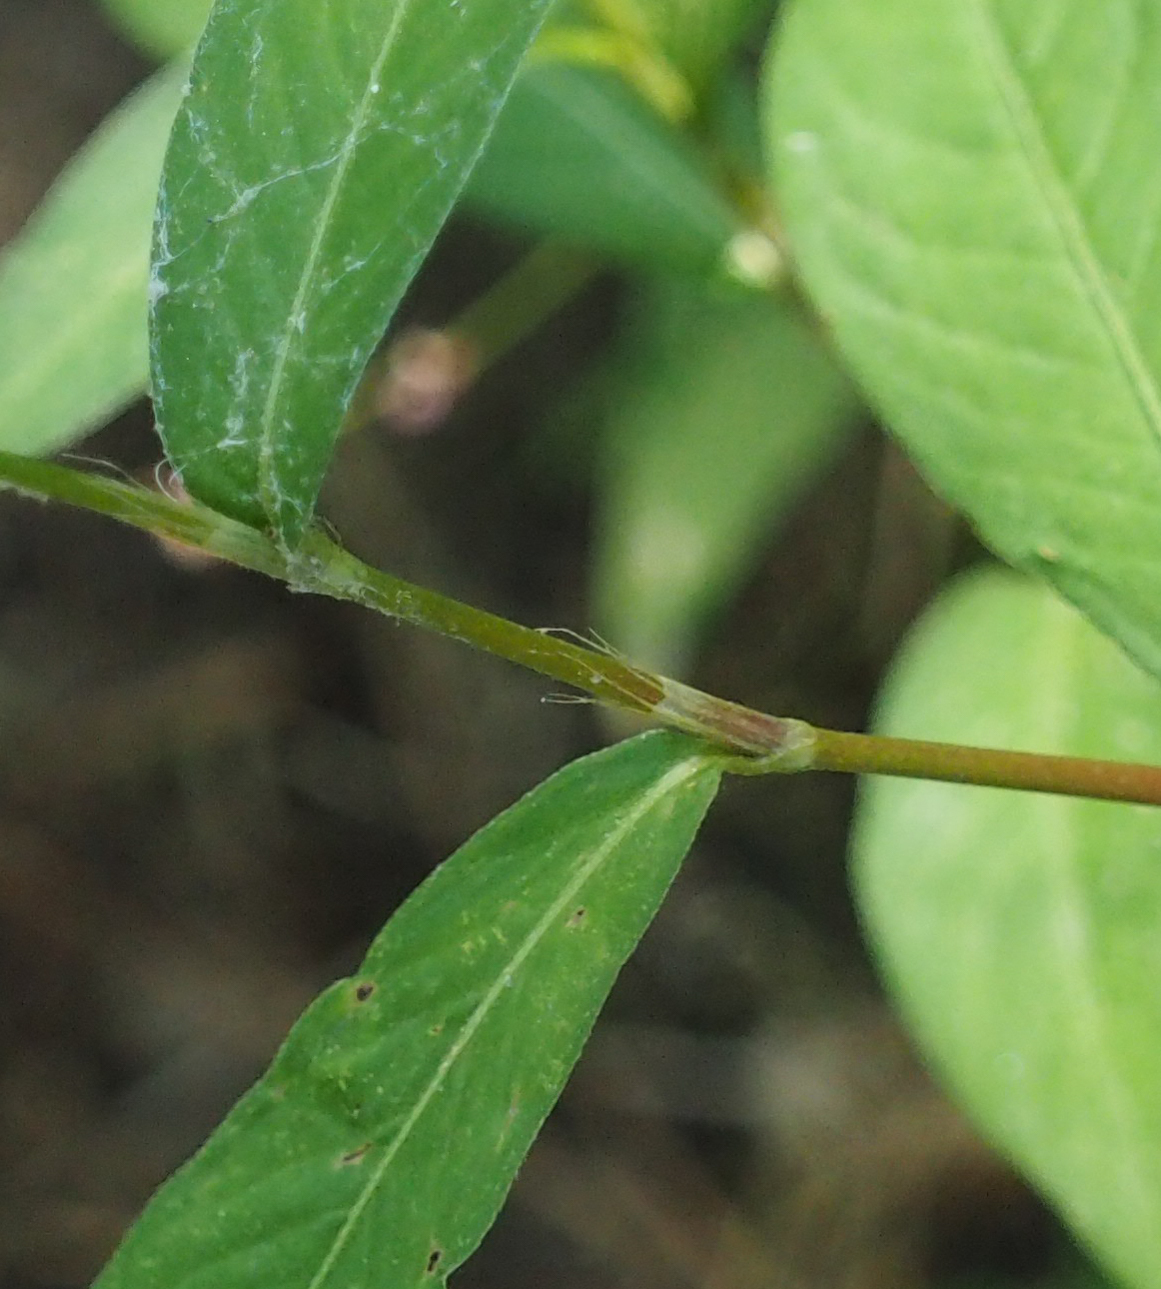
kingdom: Plantae
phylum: Tracheophyta
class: Magnoliopsida
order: Caryophyllales
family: Polygonaceae
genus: Persicaria
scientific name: Persicaria longiseta
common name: Bristly lady's-thumb
